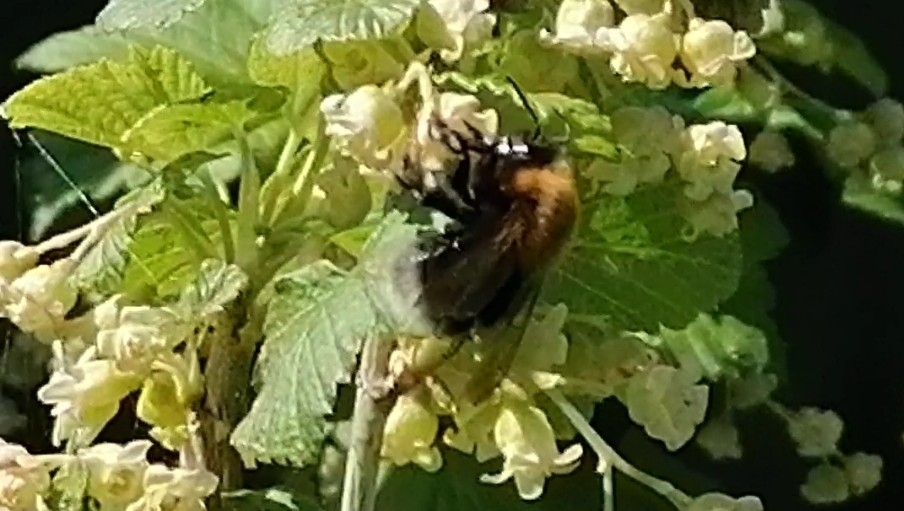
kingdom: Animalia
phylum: Arthropoda
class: Insecta
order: Hymenoptera
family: Apidae
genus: Bombus
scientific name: Bombus hypnorum
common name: New garden bumblebee
